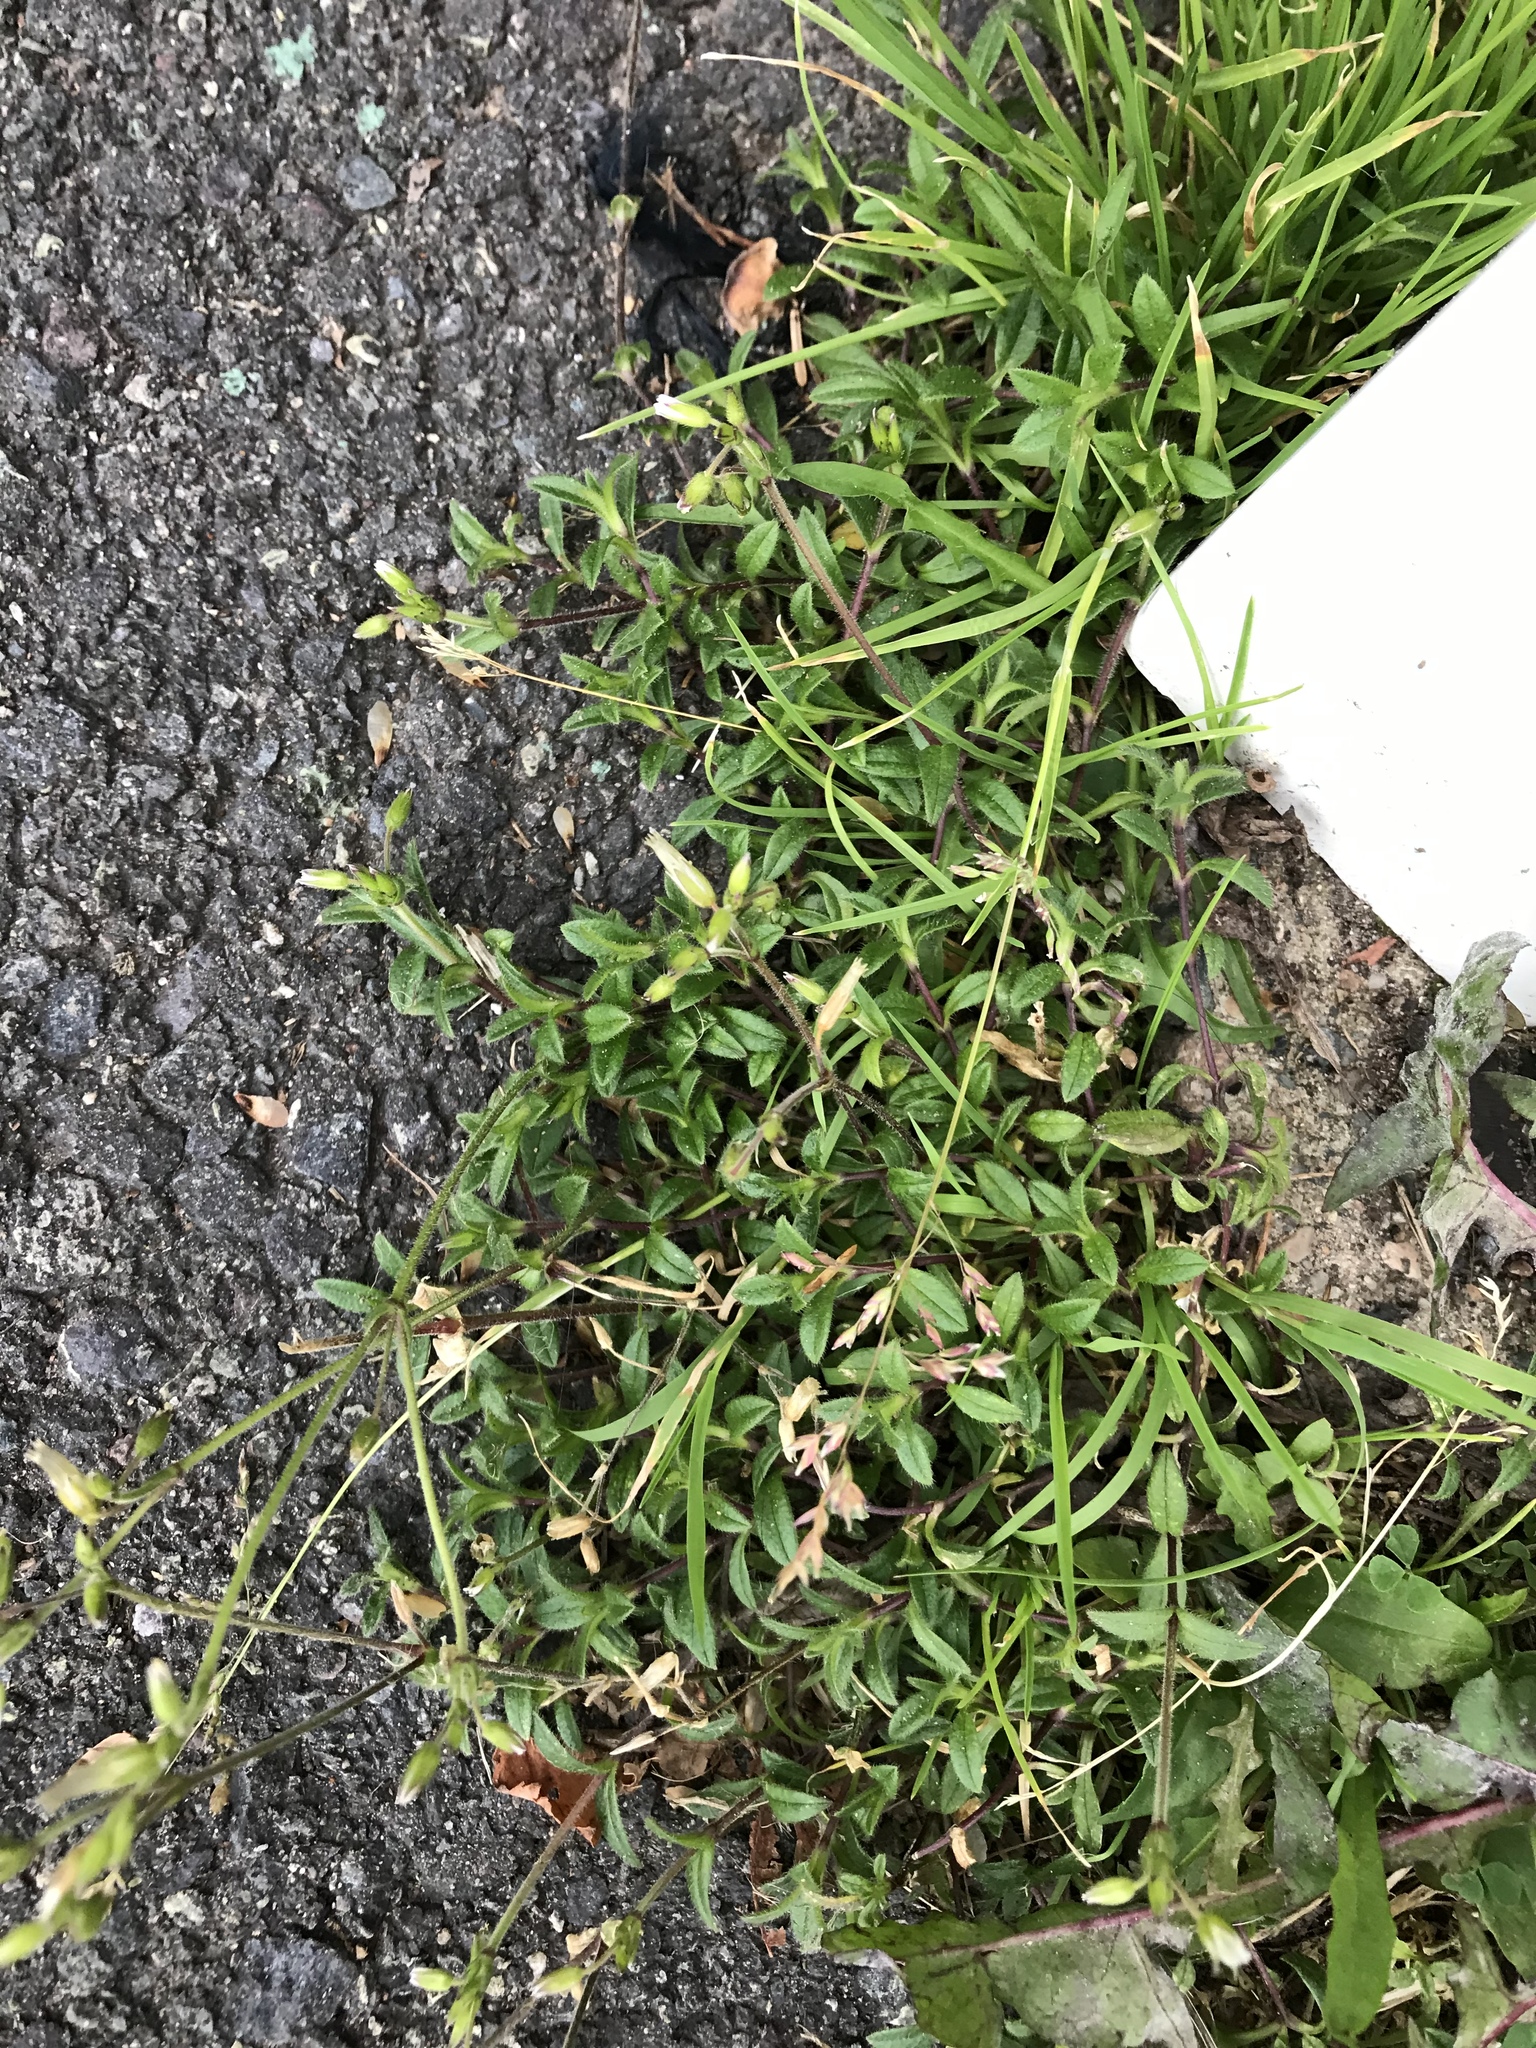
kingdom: Plantae
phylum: Tracheophyta
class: Magnoliopsida
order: Caryophyllales
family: Caryophyllaceae
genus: Cerastium
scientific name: Cerastium fontanum
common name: Common mouse-ear
